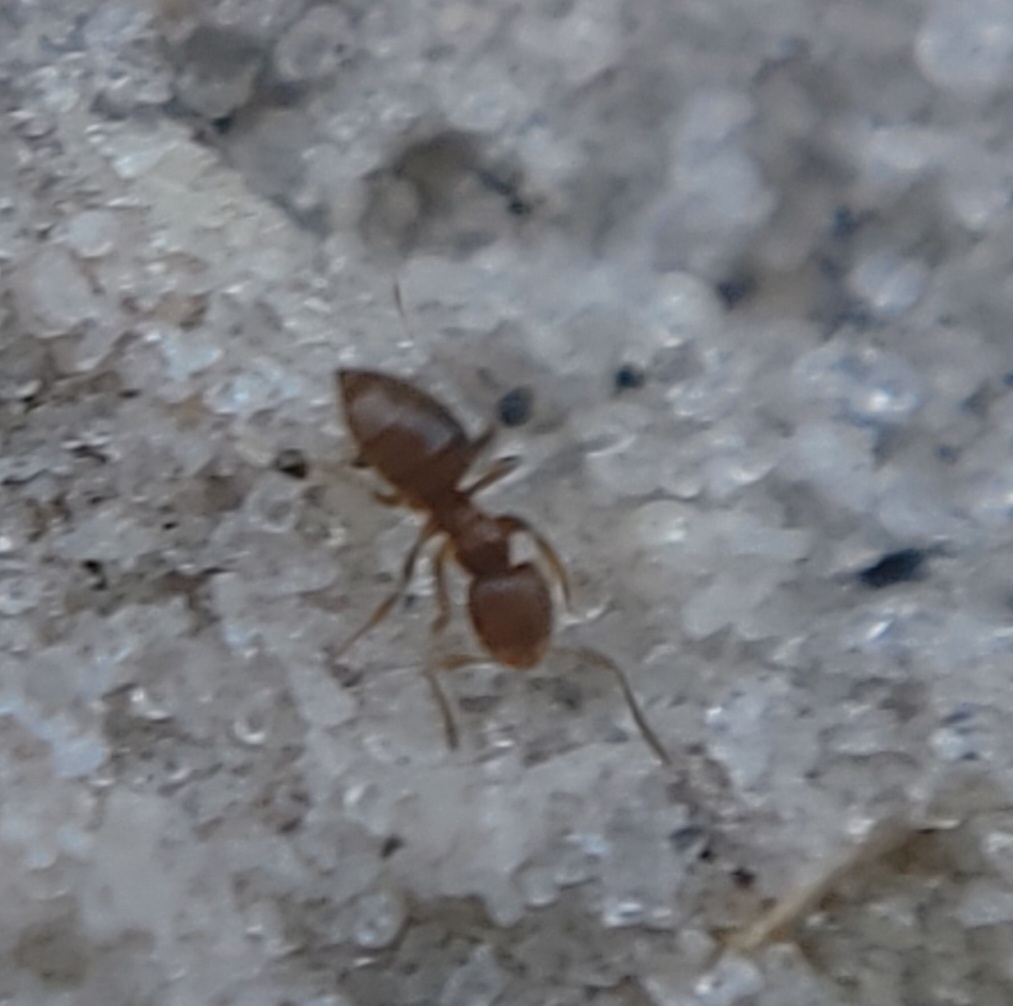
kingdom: Animalia
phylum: Arthropoda
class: Insecta
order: Hymenoptera
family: Formicidae
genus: Brachymyrmex
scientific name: Brachymyrmex obscurior
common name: Obscure rover ant
